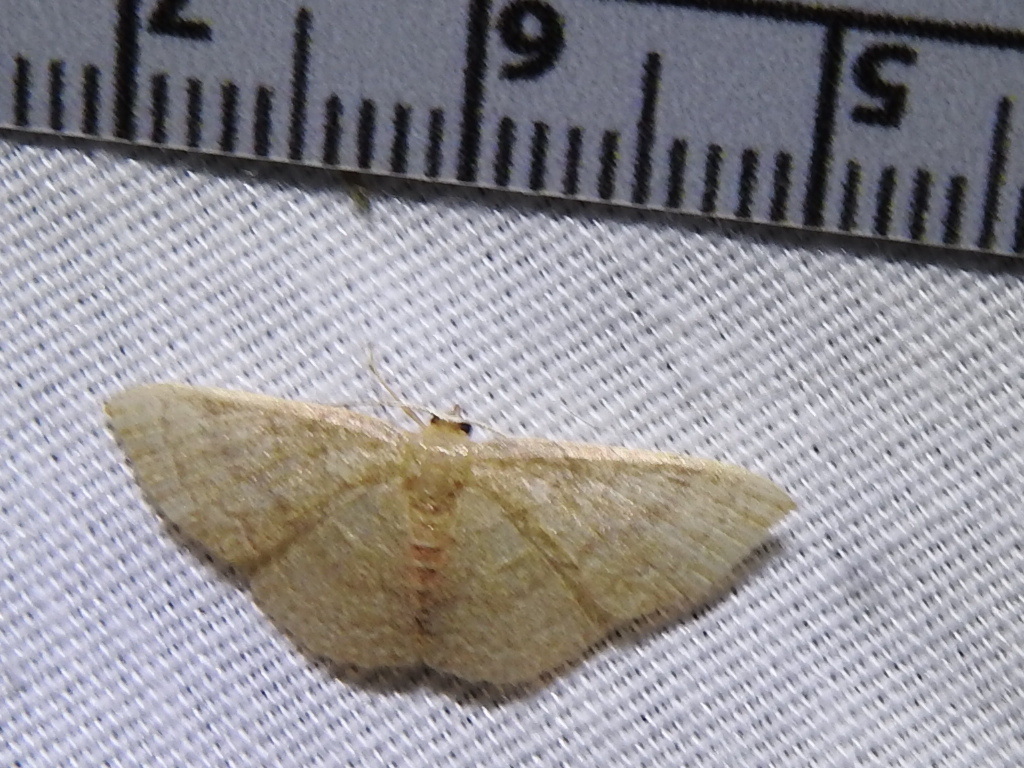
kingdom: Animalia
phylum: Arthropoda
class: Insecta
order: Lepidoptera
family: Geometridae
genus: Pleuroprucha
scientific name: Pleuroprucha insulsaria
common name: Common tan wave
